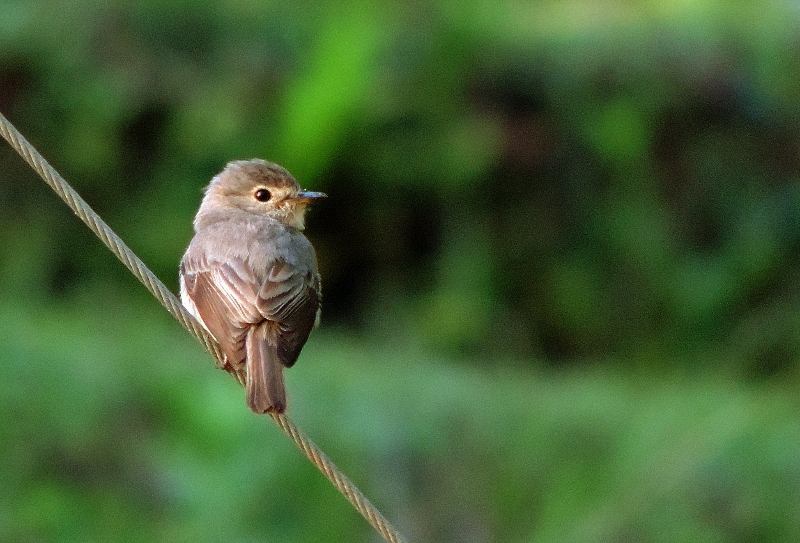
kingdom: Animalia
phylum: Chordata
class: Aves
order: Passeriformes
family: Muscicapidae
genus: Muscicapa
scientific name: Muscicapa adusta
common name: African dusky flycatcher
